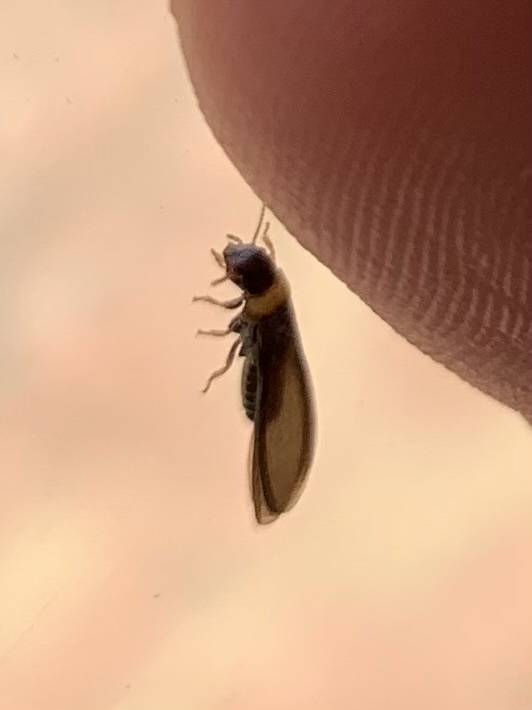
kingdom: Animalia
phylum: Arthropoda
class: Insecta
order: Blattodea
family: Kalotermitidae
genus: Kalotermes
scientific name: Kalotermes flavicollis
